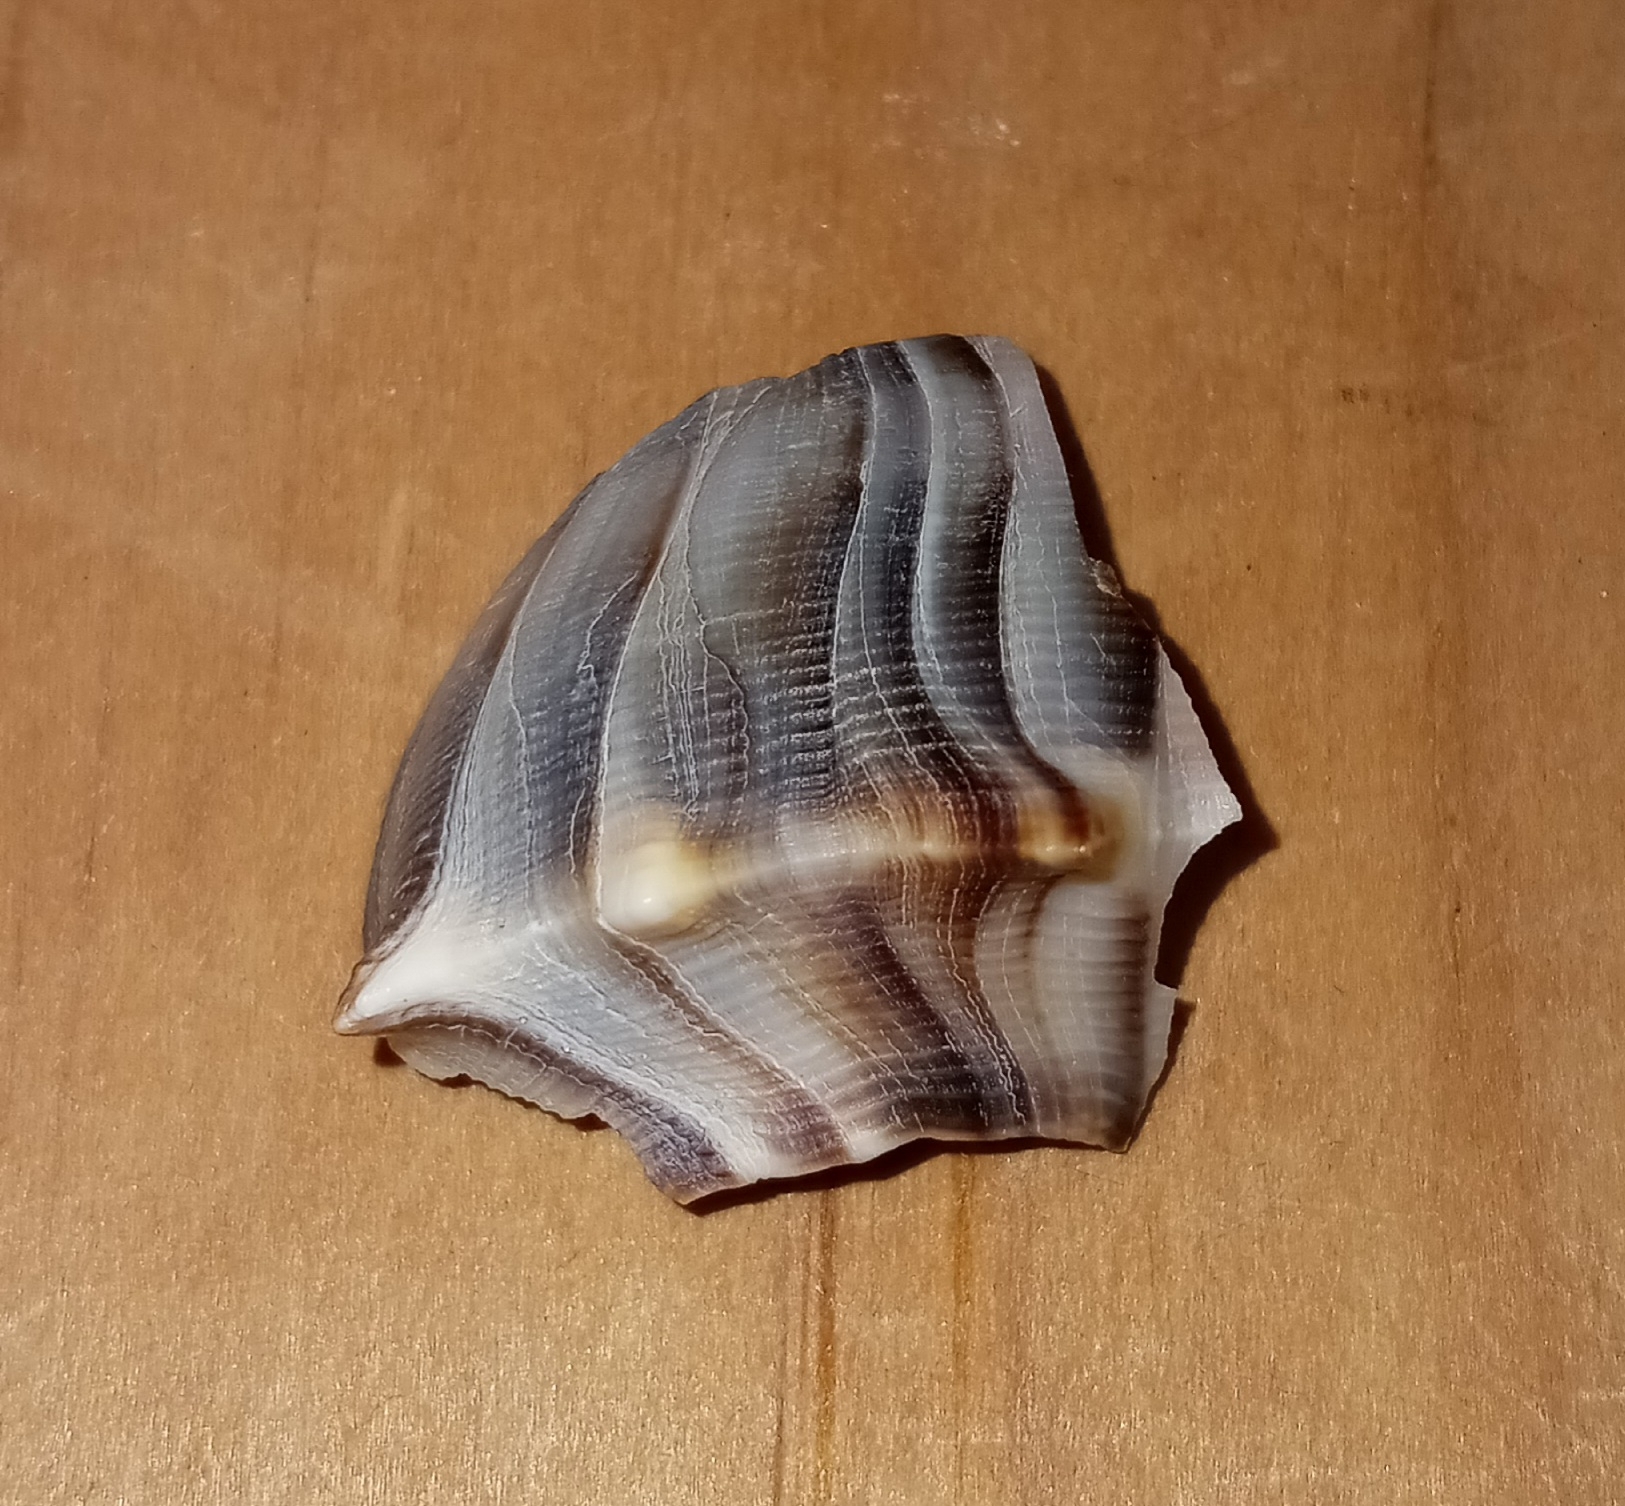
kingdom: Animalia
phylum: Mollusca
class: Gastropoda
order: Neogastropoda
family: Busyconidae
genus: Busycon
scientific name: Busycon carica
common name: Knobbed whelk
